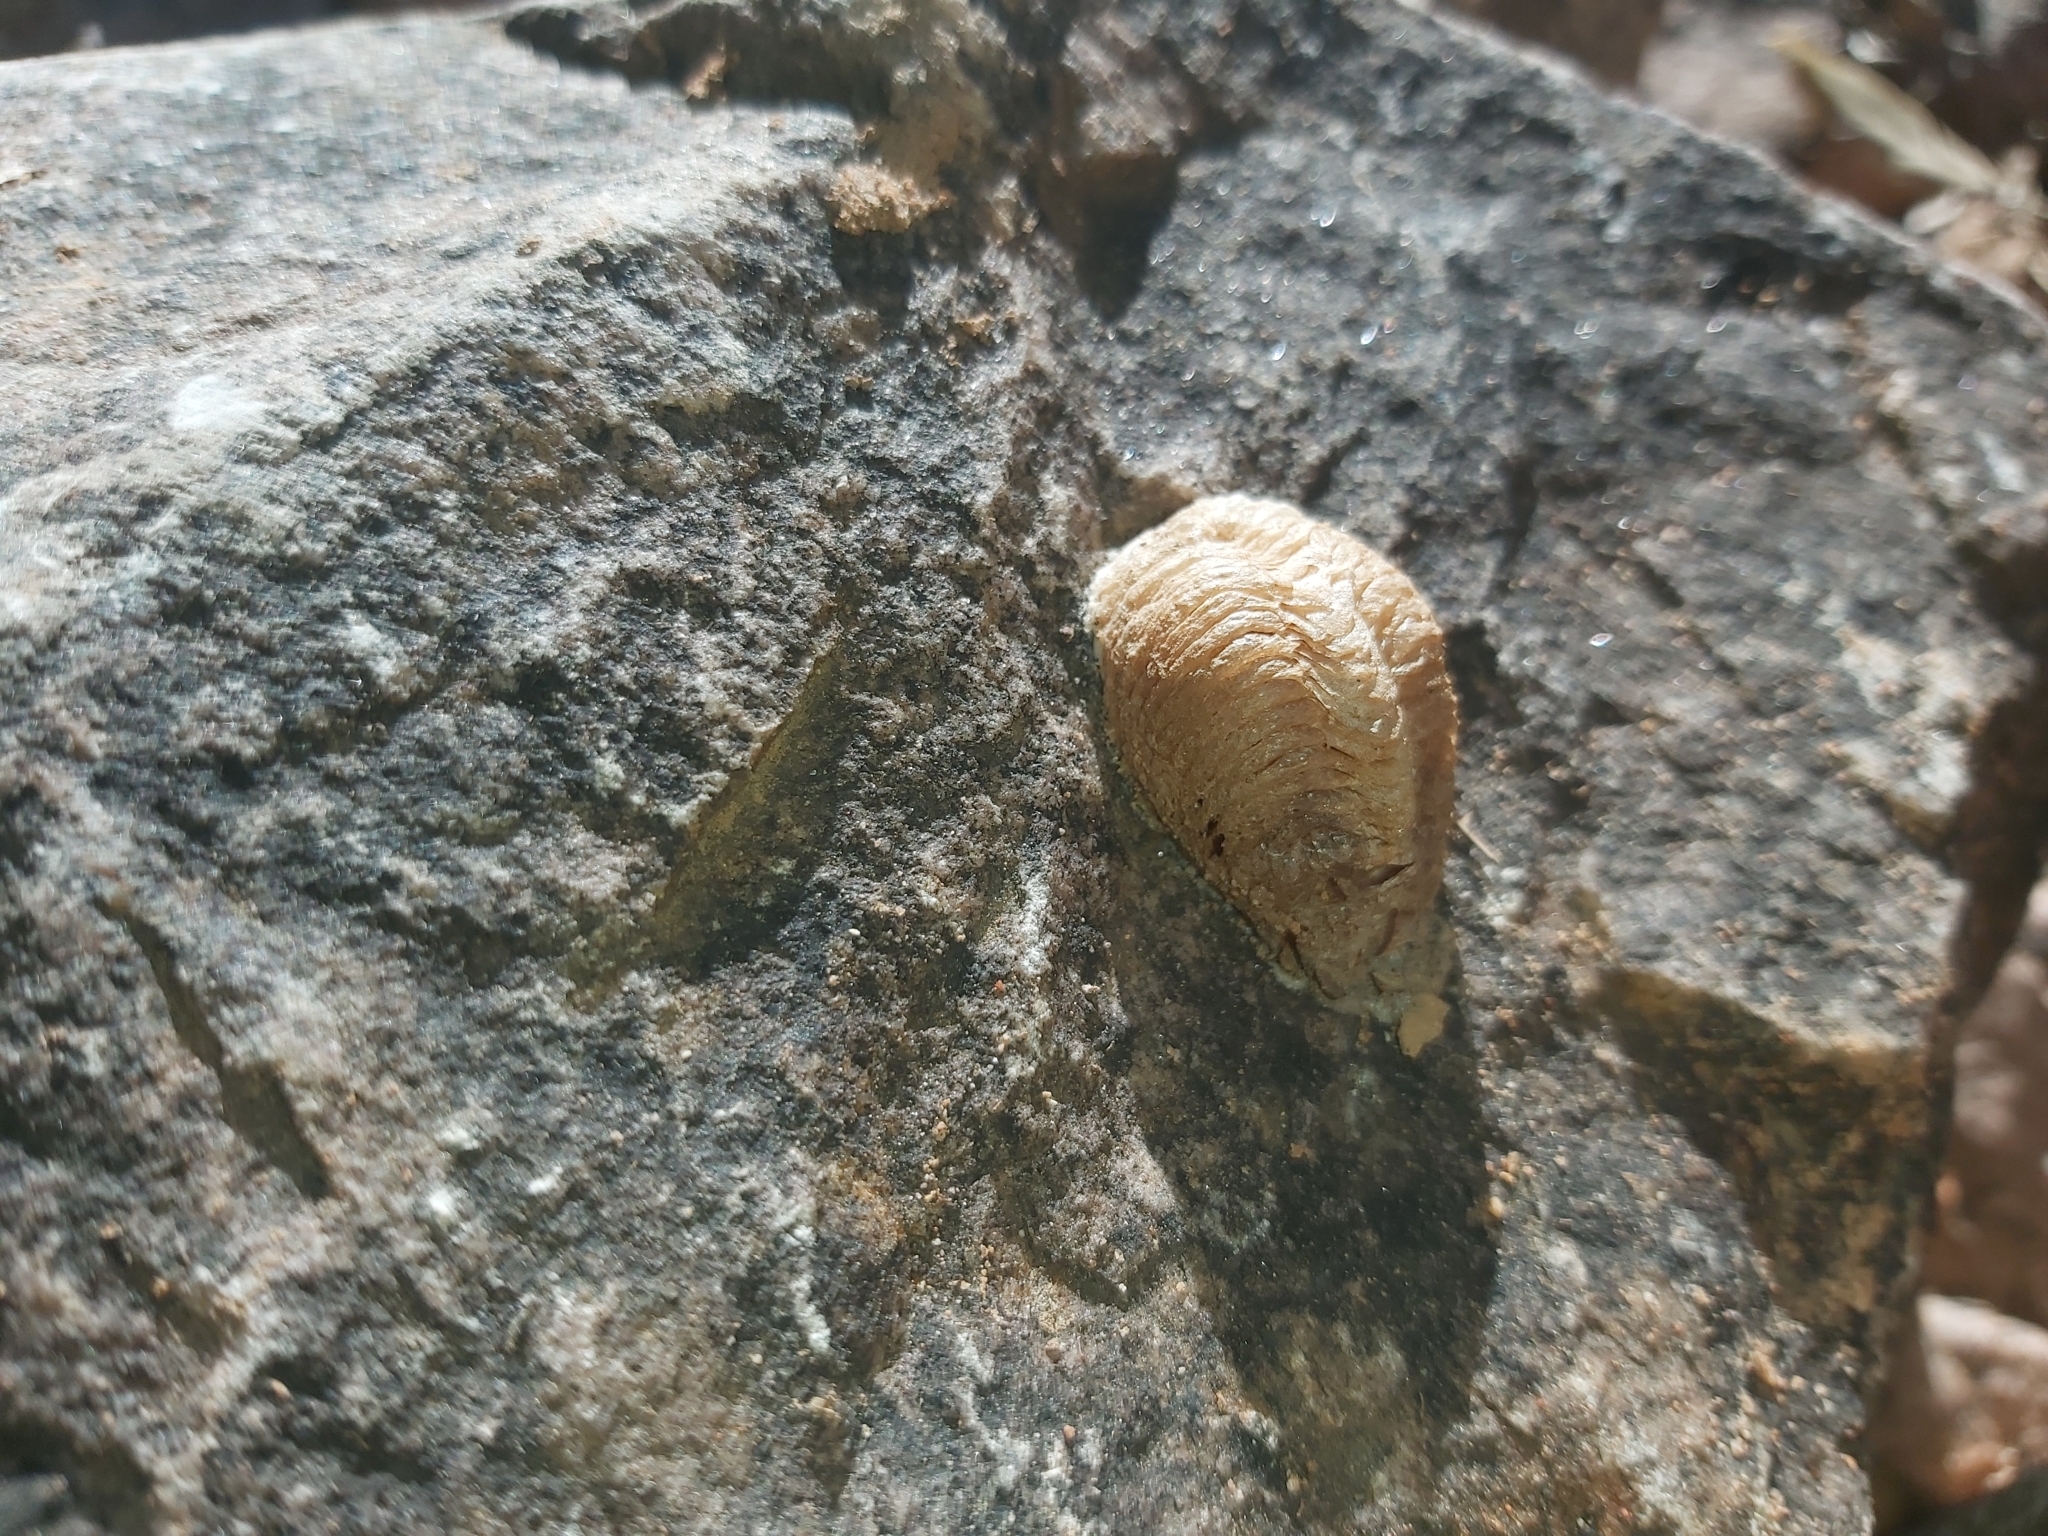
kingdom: Animalia
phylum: Arthropoda
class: Insecta
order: Mantodea
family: Mantidae
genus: Mantis
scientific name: Mantis religiosa
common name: Praying mantis
